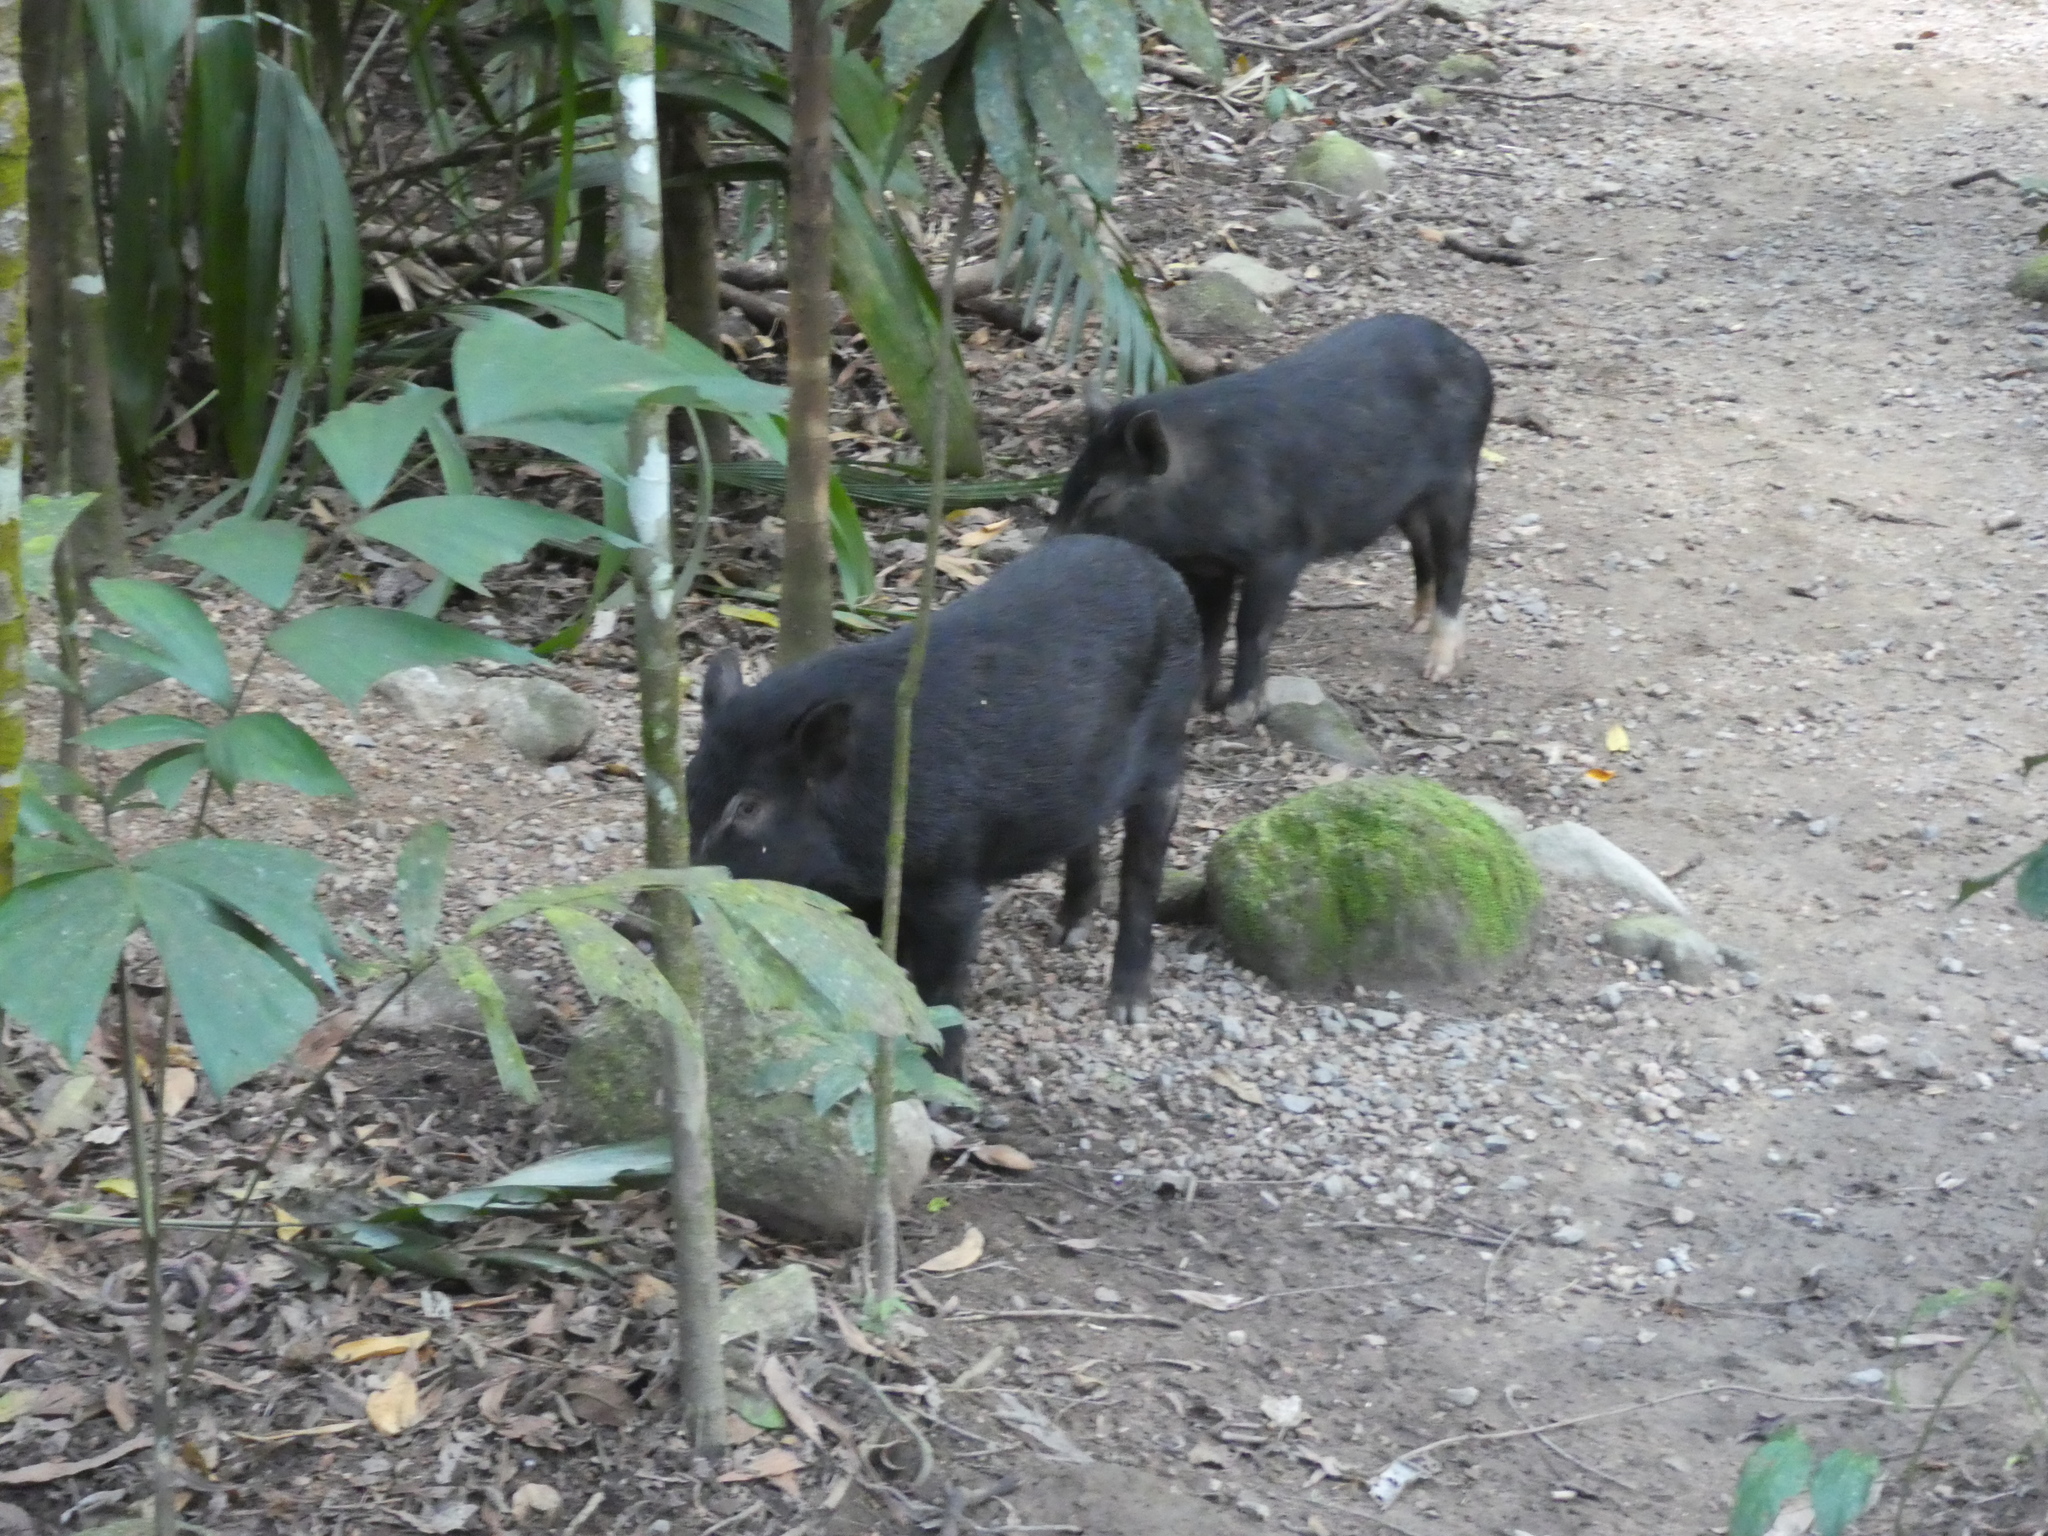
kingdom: Animalia
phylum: Chordata
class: Mammalia
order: Artiodactyla
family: Suidae
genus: Sus
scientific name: Sus scrofa
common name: Wild boar
